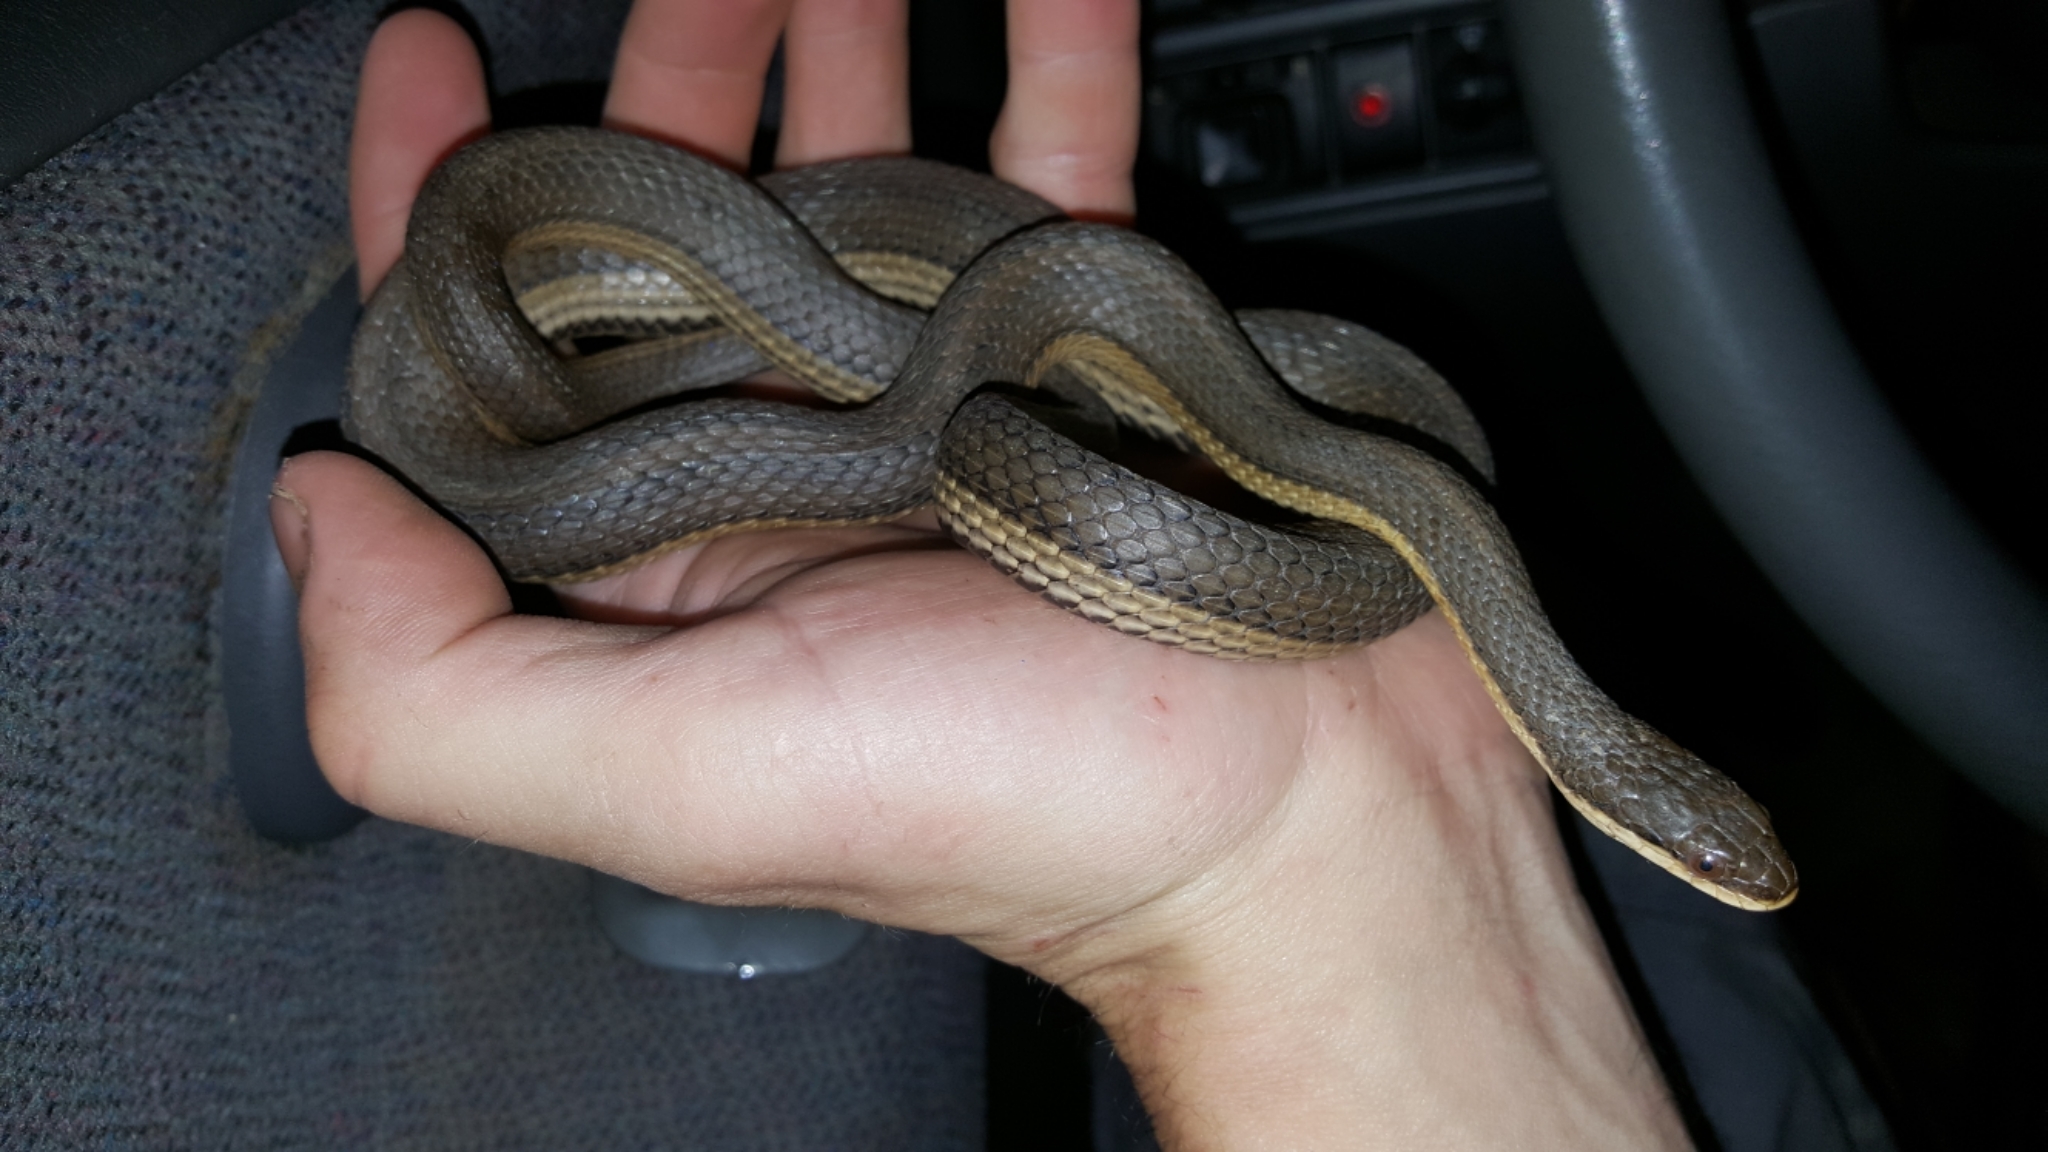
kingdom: Animalia
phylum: Chordata
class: Squamata
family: Colubridae
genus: Regina
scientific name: Regina grahamii
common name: Graham's crayfish snake
